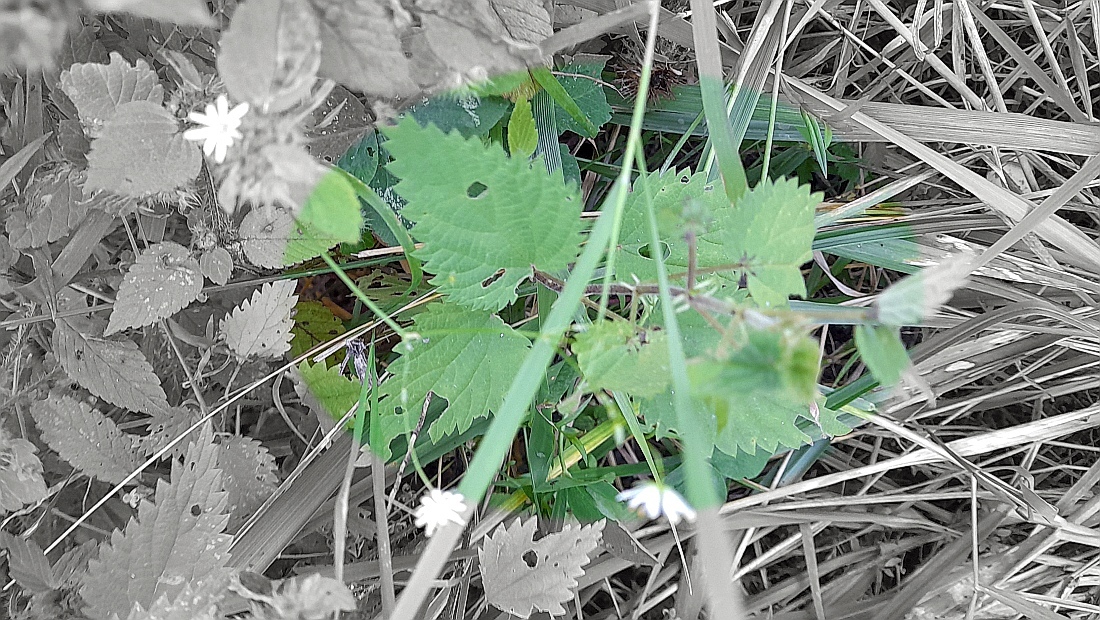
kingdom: Plantae
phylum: Tracheophyta
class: Magnoliopsida
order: Rosales
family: Urticaceae
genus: Urtica
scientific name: Urtica dioica
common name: Common nettle
